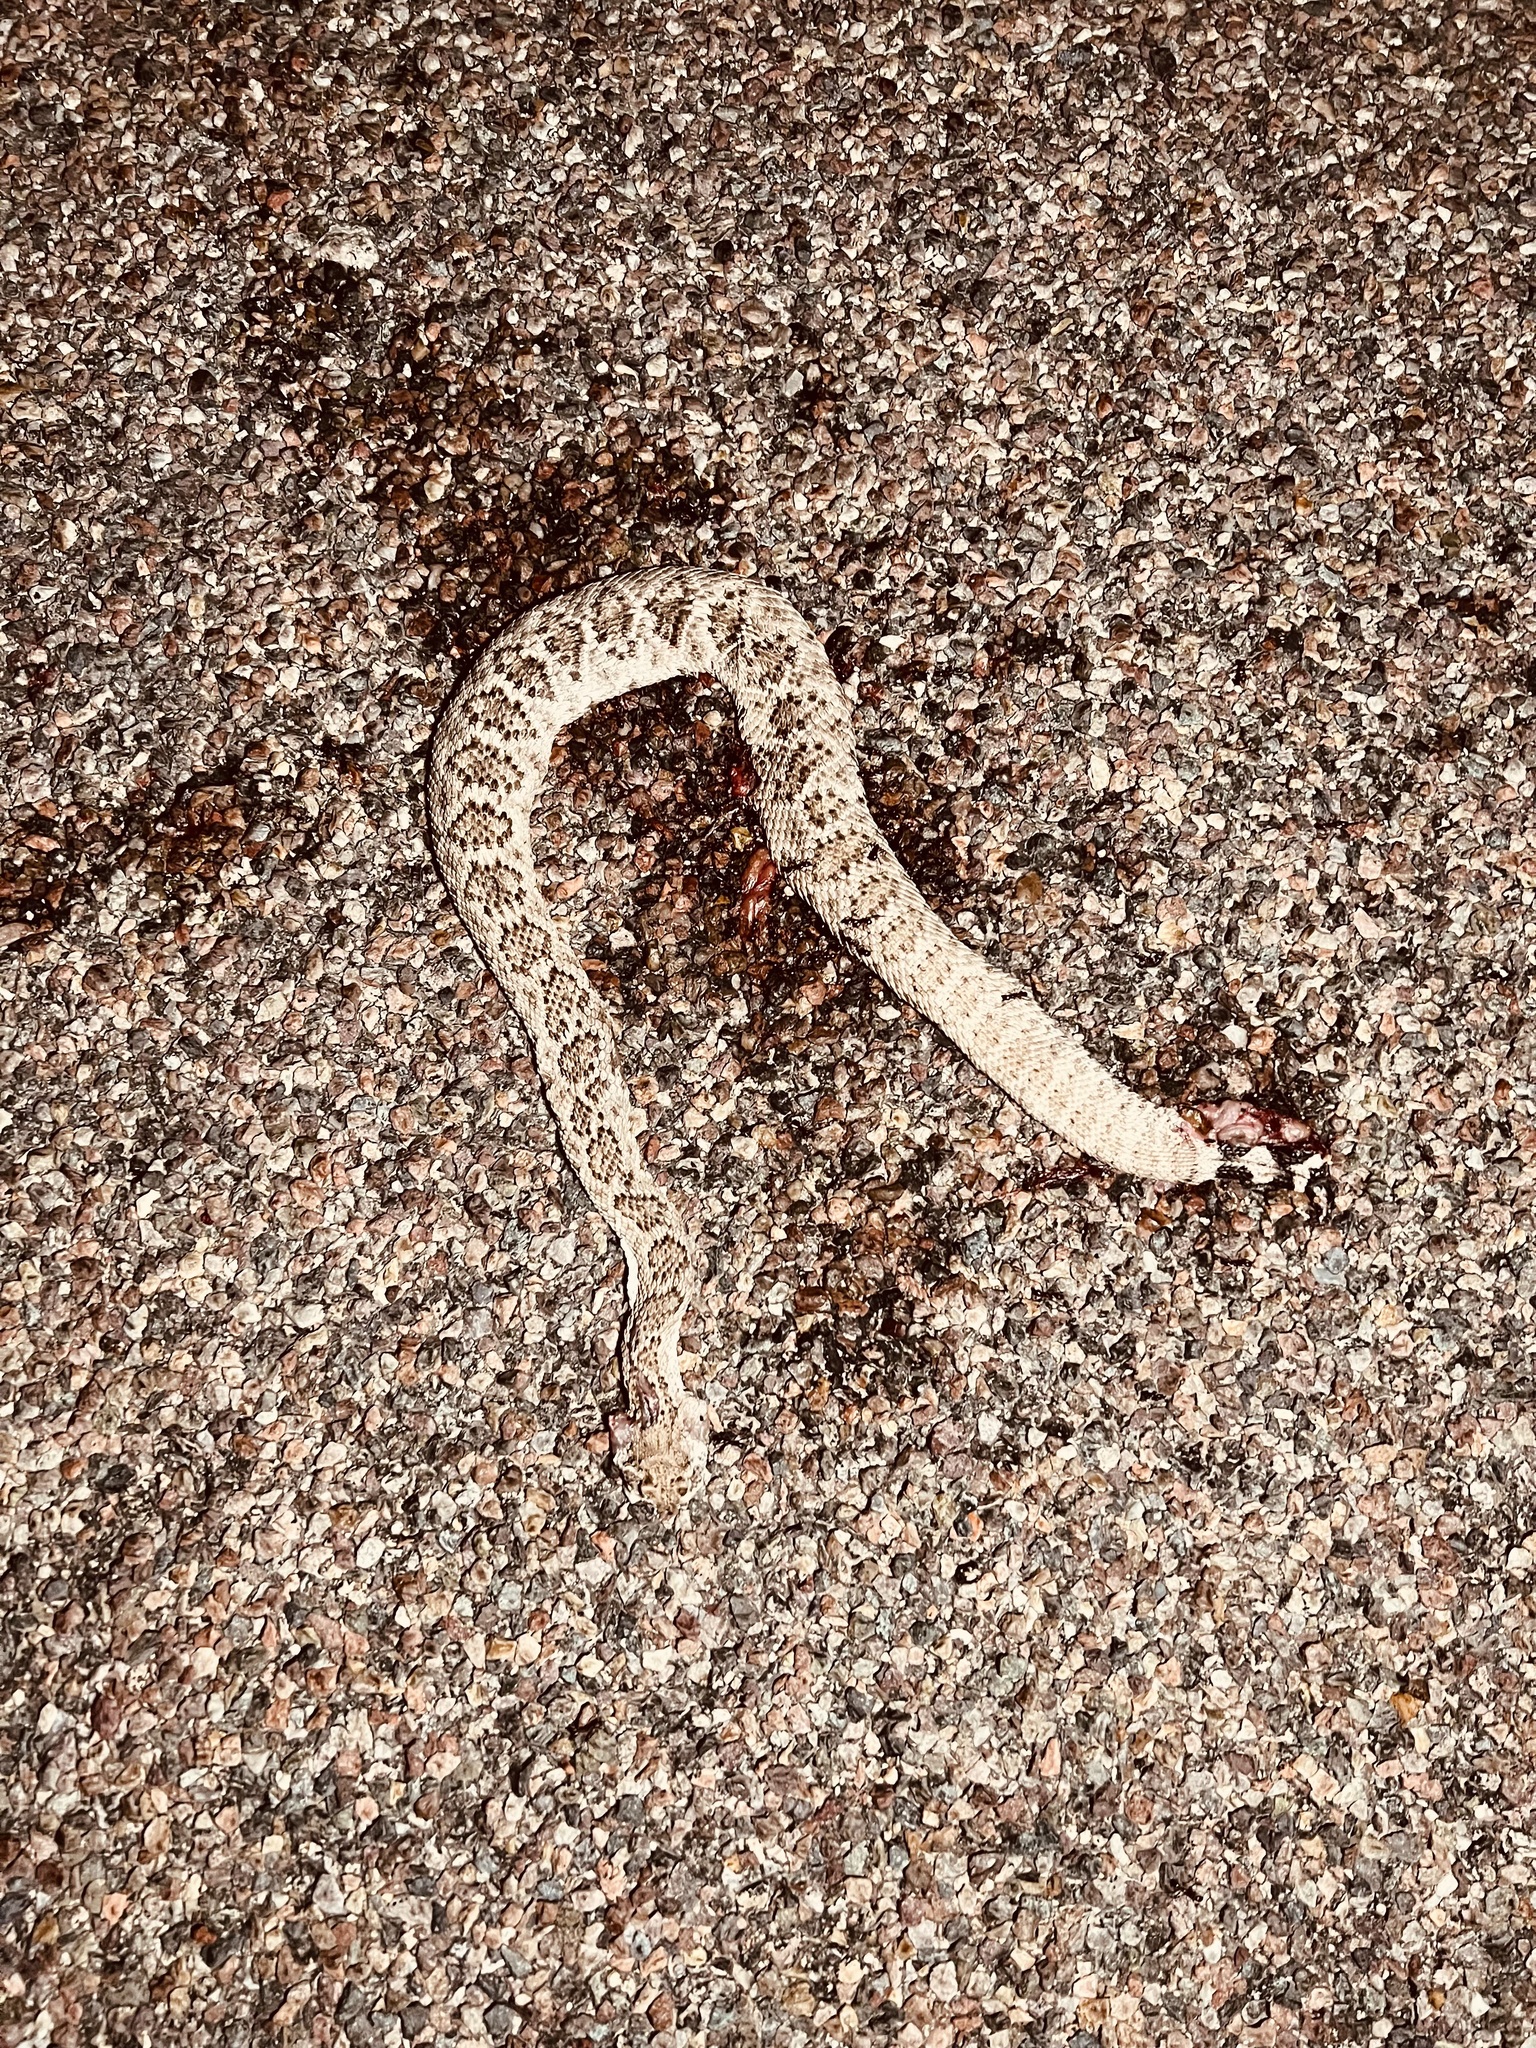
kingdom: Animalia
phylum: Chordata
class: Squamata
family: Viperidae
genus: Crotalus
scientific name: Crotalus atrox
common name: Western diamond-backed rattlesnake
